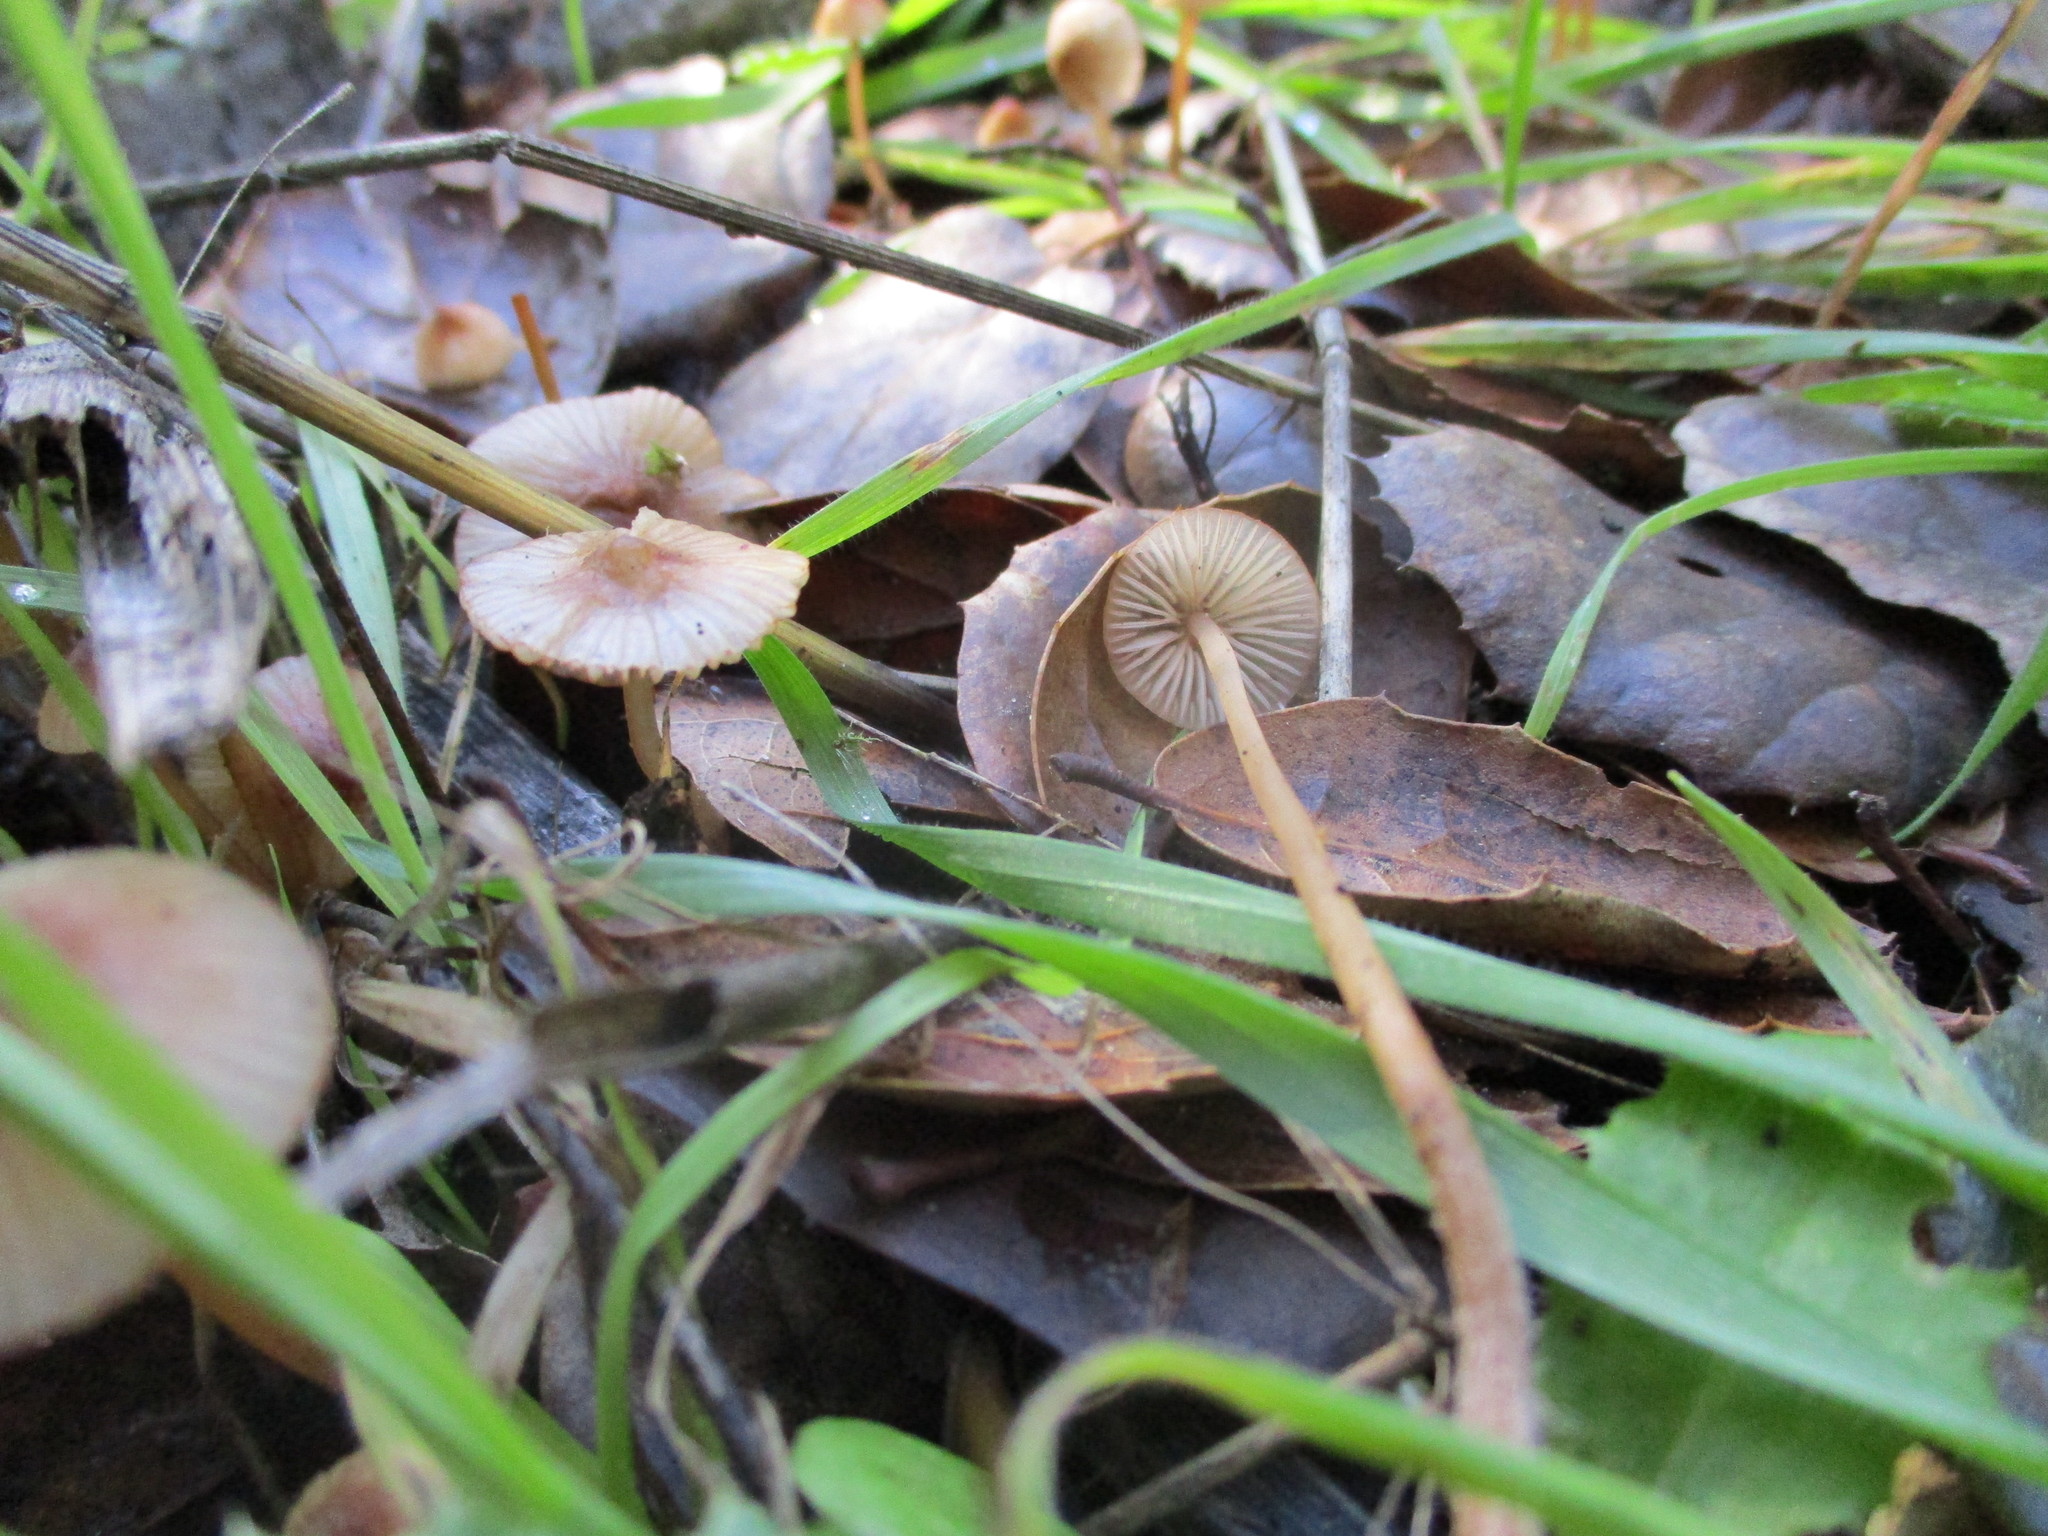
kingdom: Fungi
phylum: Basidiomycota
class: Agaricomycetes
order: Agaricales
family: Mycenaceae
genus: Mycena
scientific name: Mycena
